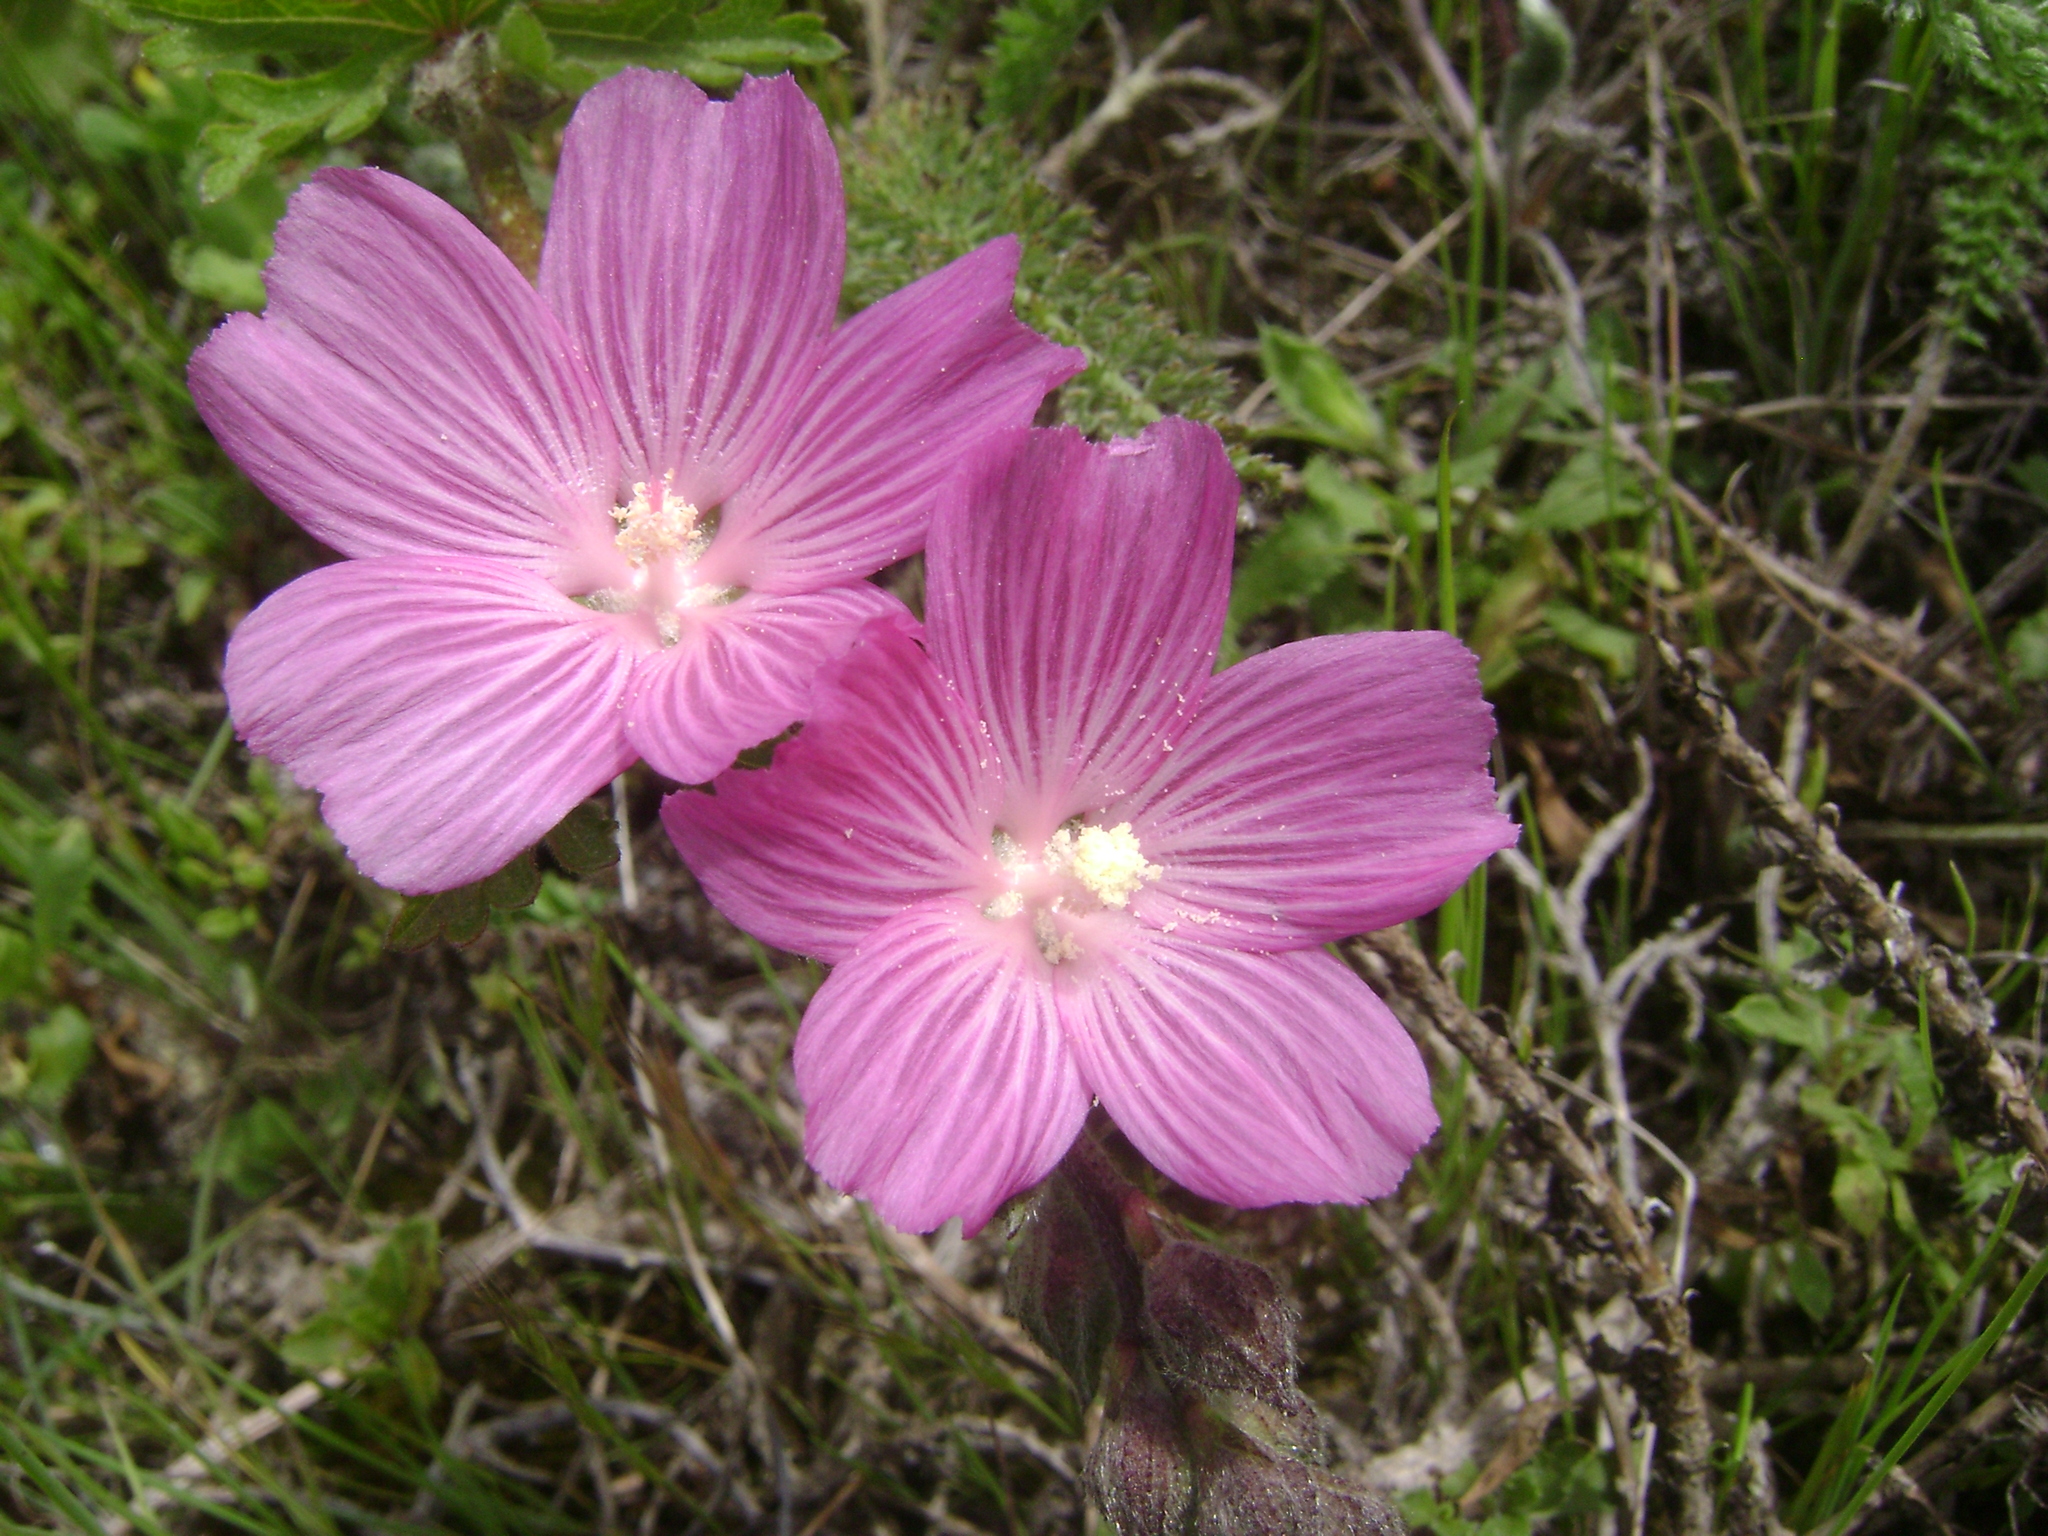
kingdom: Plantae
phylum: Tracheophyta
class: Magnoliopsida
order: Malvales
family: Malvaceae
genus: Sidalcea
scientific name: Sidalcea malviflora
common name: Greek mallow
